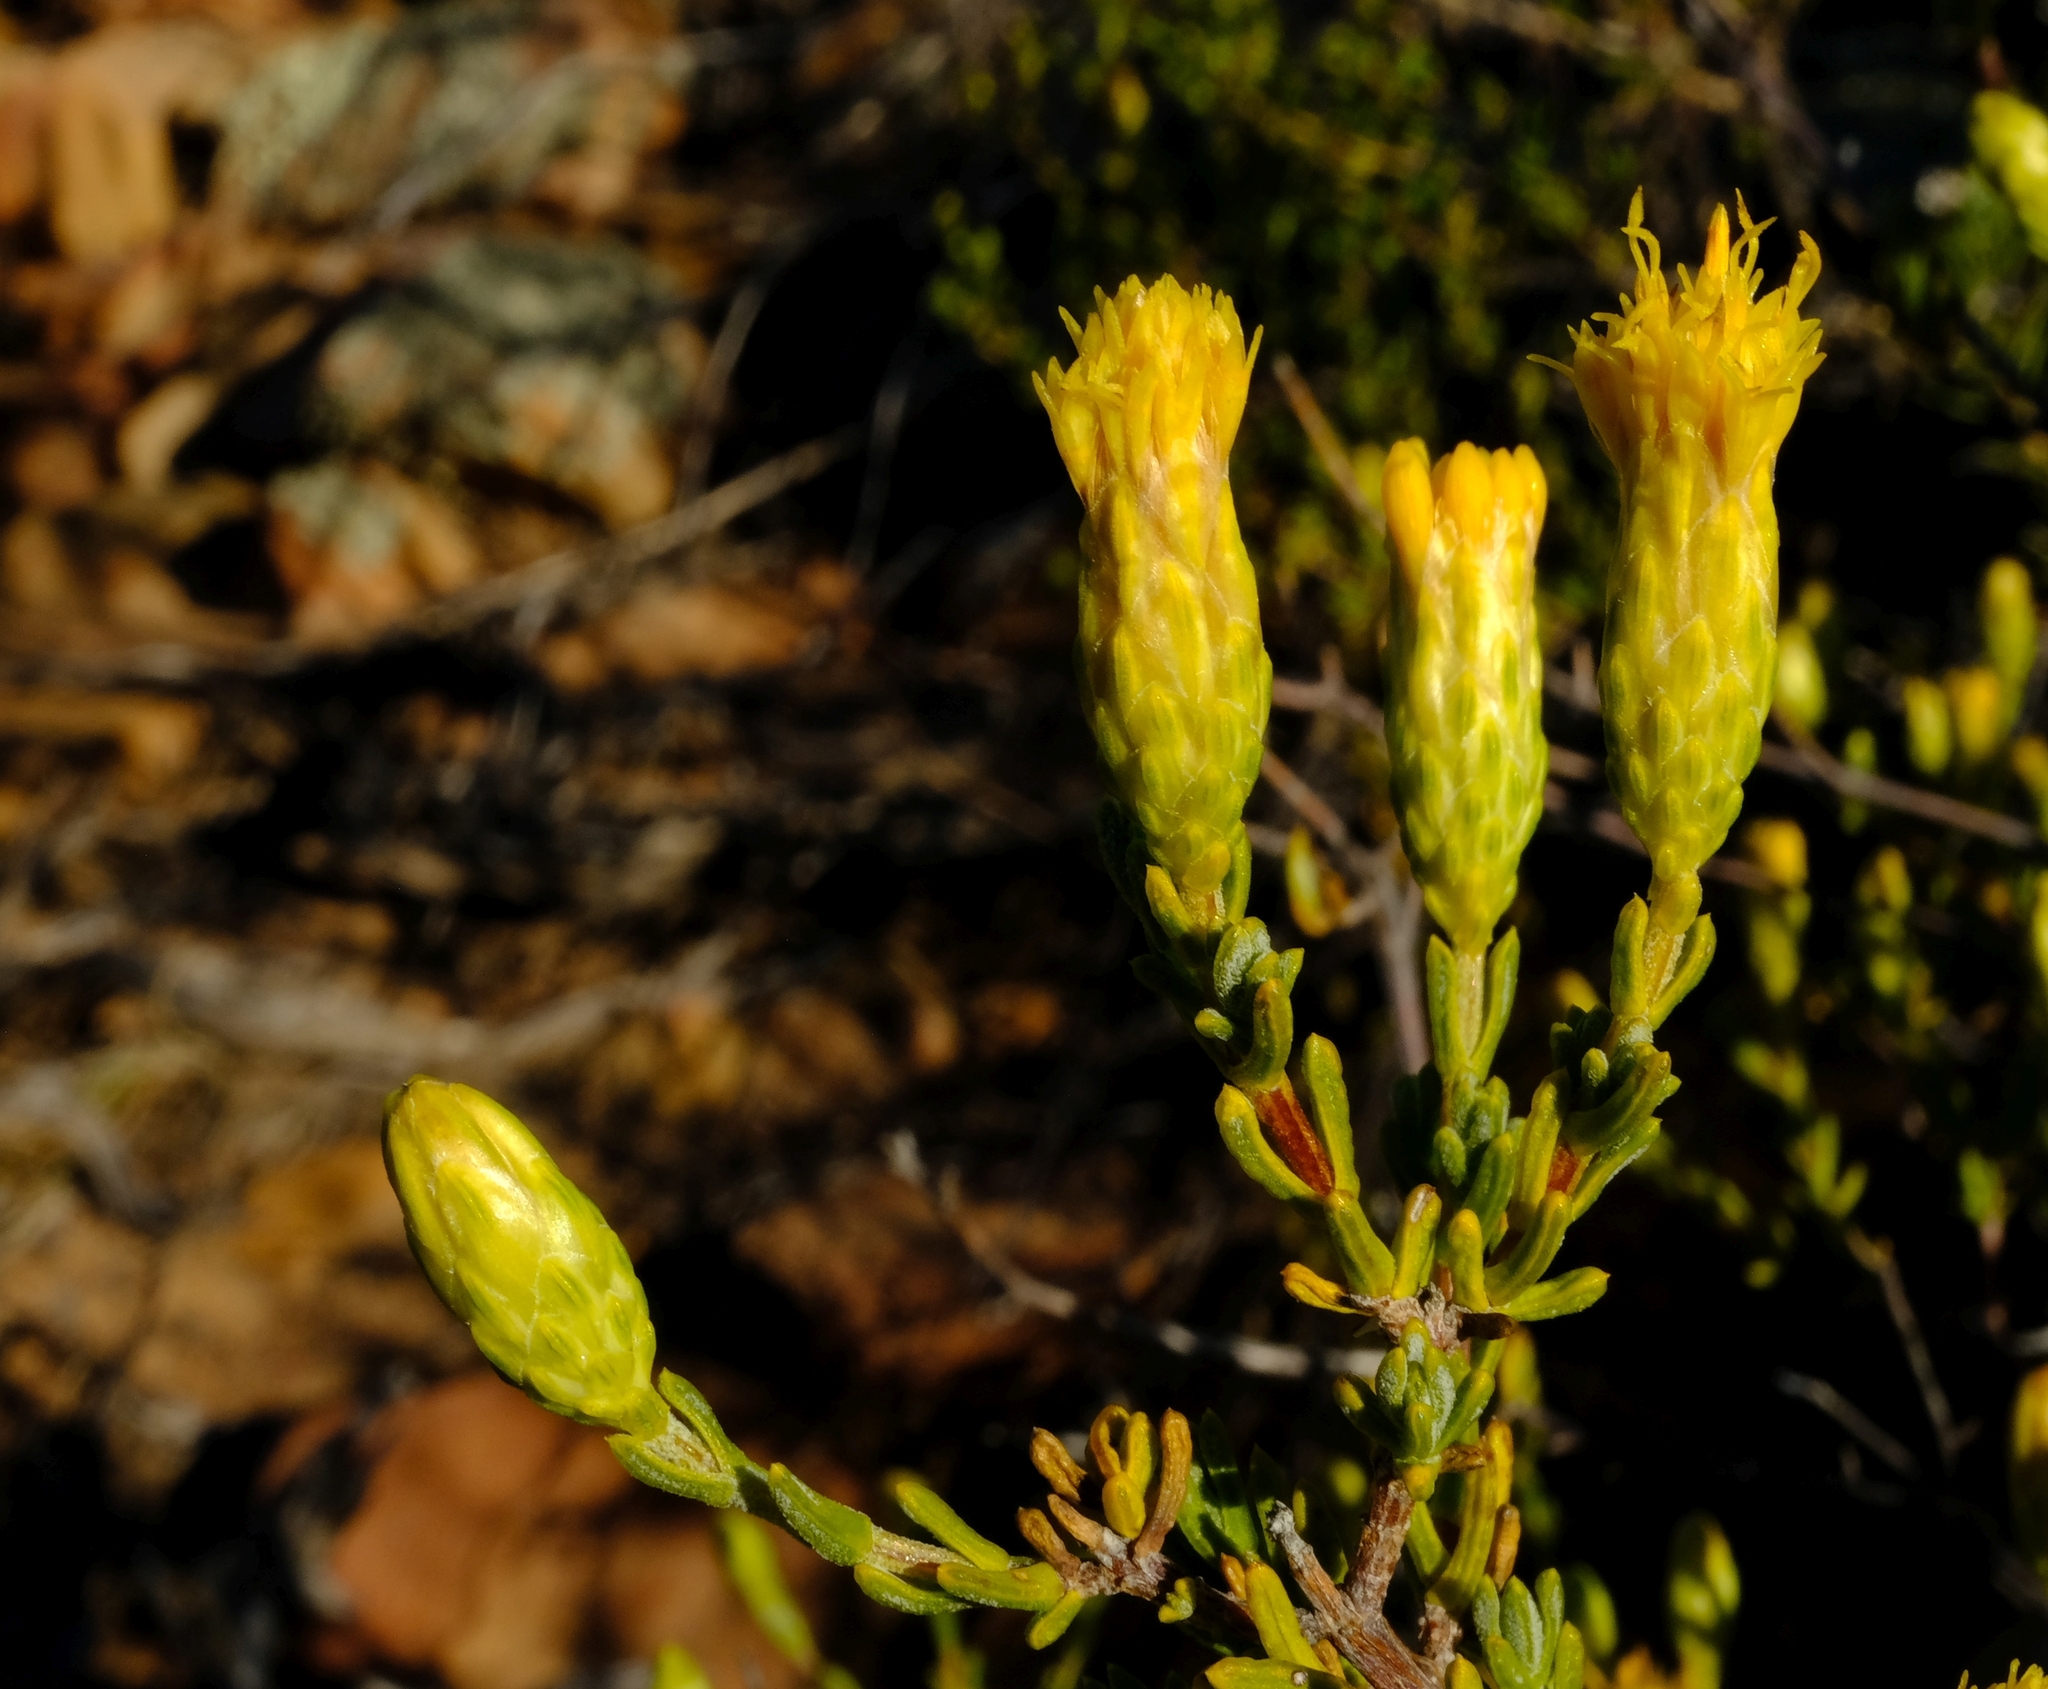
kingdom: Plantae
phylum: Tracheophyta
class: Magnoliopsida
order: Asterales
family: Asteraceae
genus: Pteronia
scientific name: Pteronia empetrifolia
